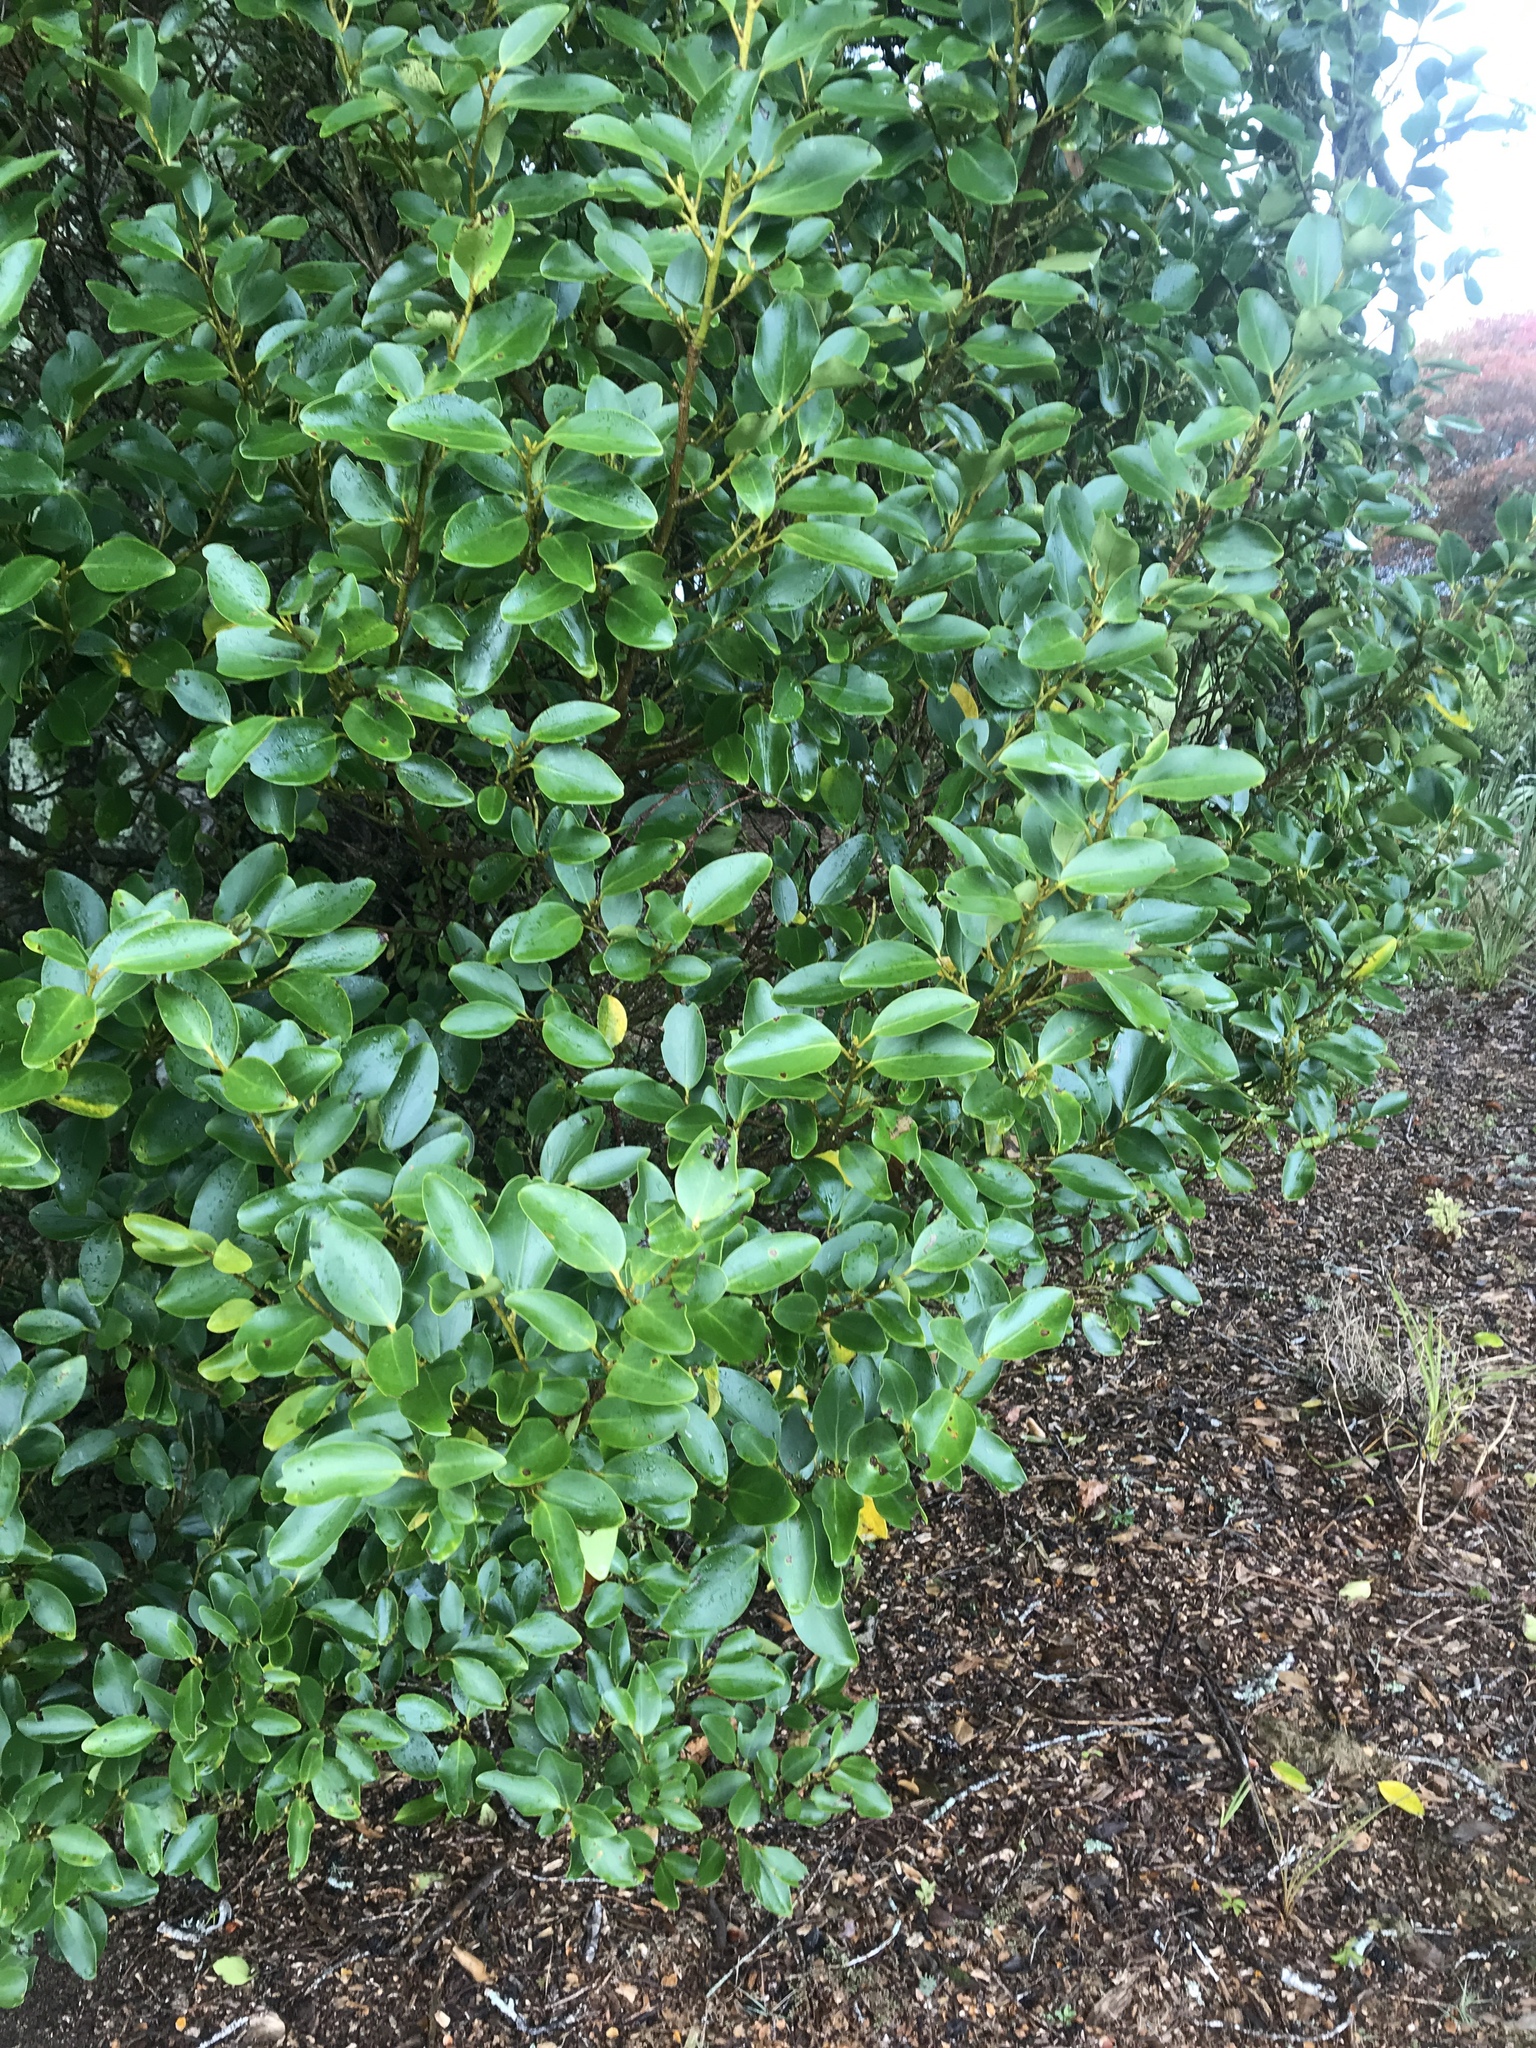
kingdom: Plantae
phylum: Tracheophyta
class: Magnoliopsida
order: Apiales
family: Griseliniaceae
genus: Griselinia
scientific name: Griselinia littoralis
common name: New zealand broadleaf
